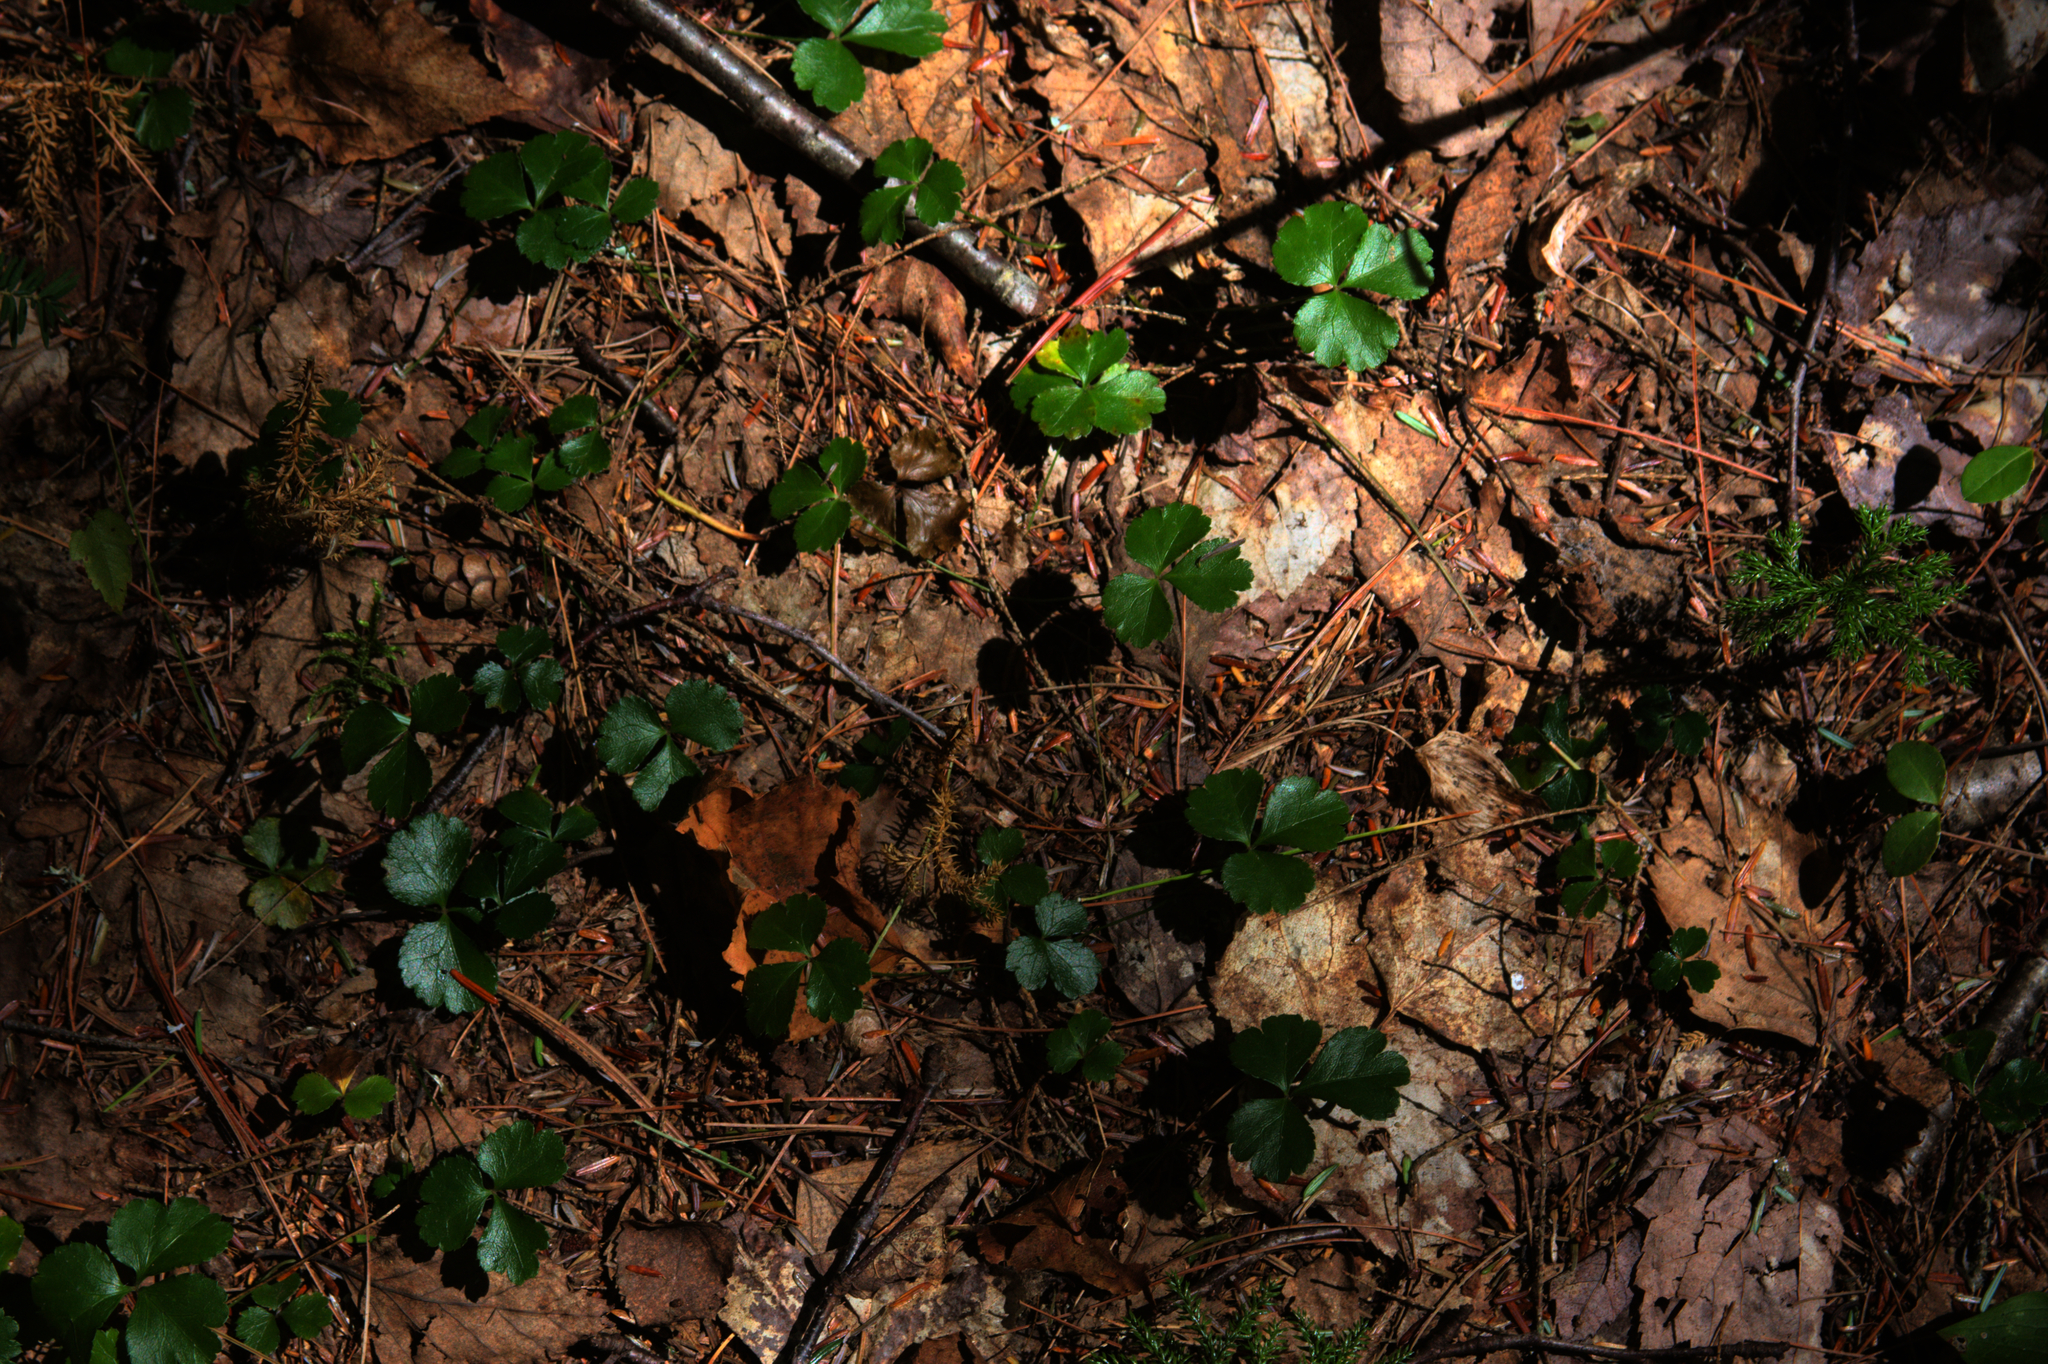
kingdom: Plantae
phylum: Tracheophyta
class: Magnoliopsida
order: Ranunculales
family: Ranunculaceae
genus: Coptis
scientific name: Coptis trifolia
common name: Canker-root
